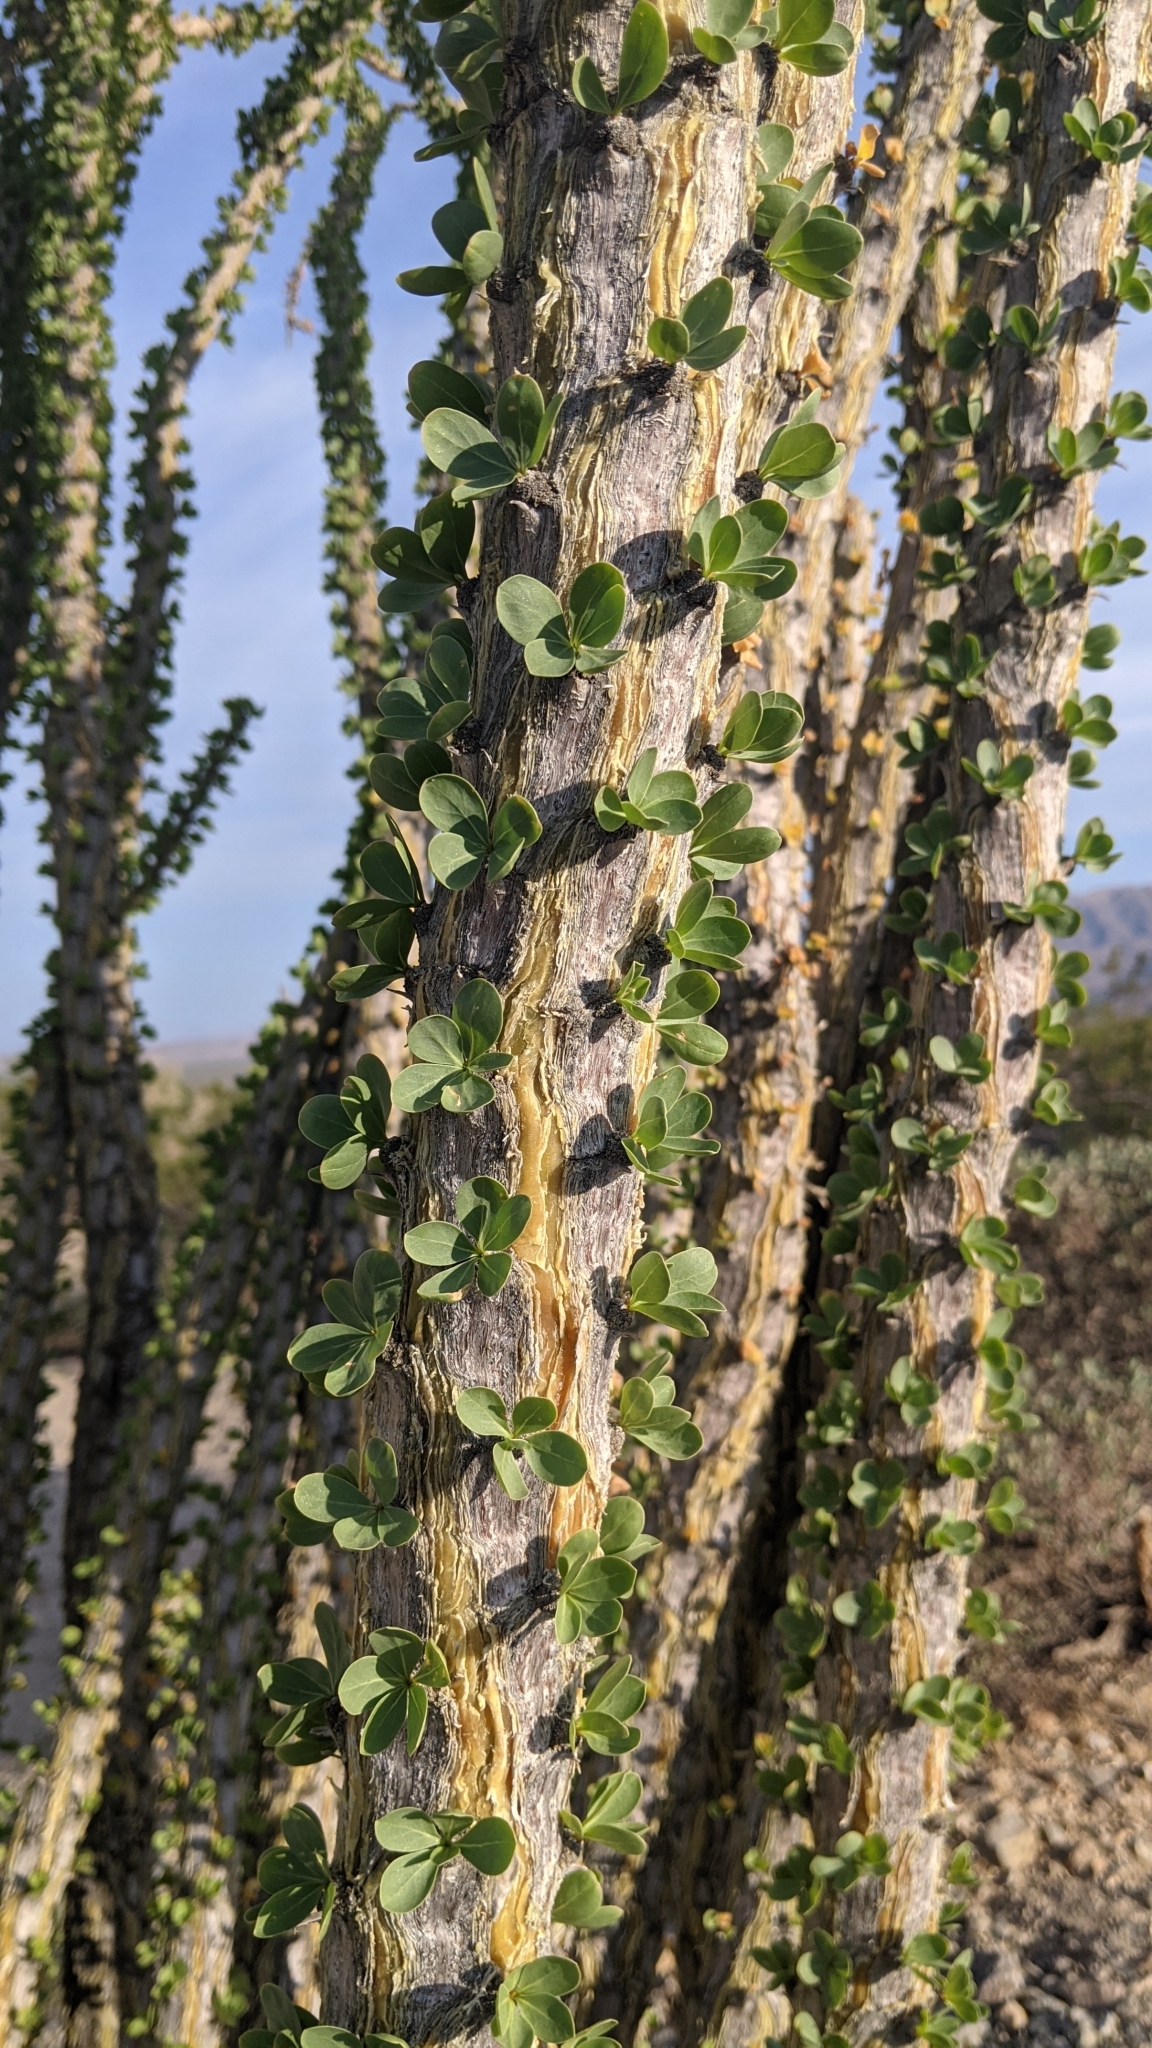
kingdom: Plantae
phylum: Tracheophyta
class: Magnoliopsida
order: Ericales
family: Fouquieriaceae
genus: Fouquieria
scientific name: Fouquieria splendens
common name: Vine-cactus
